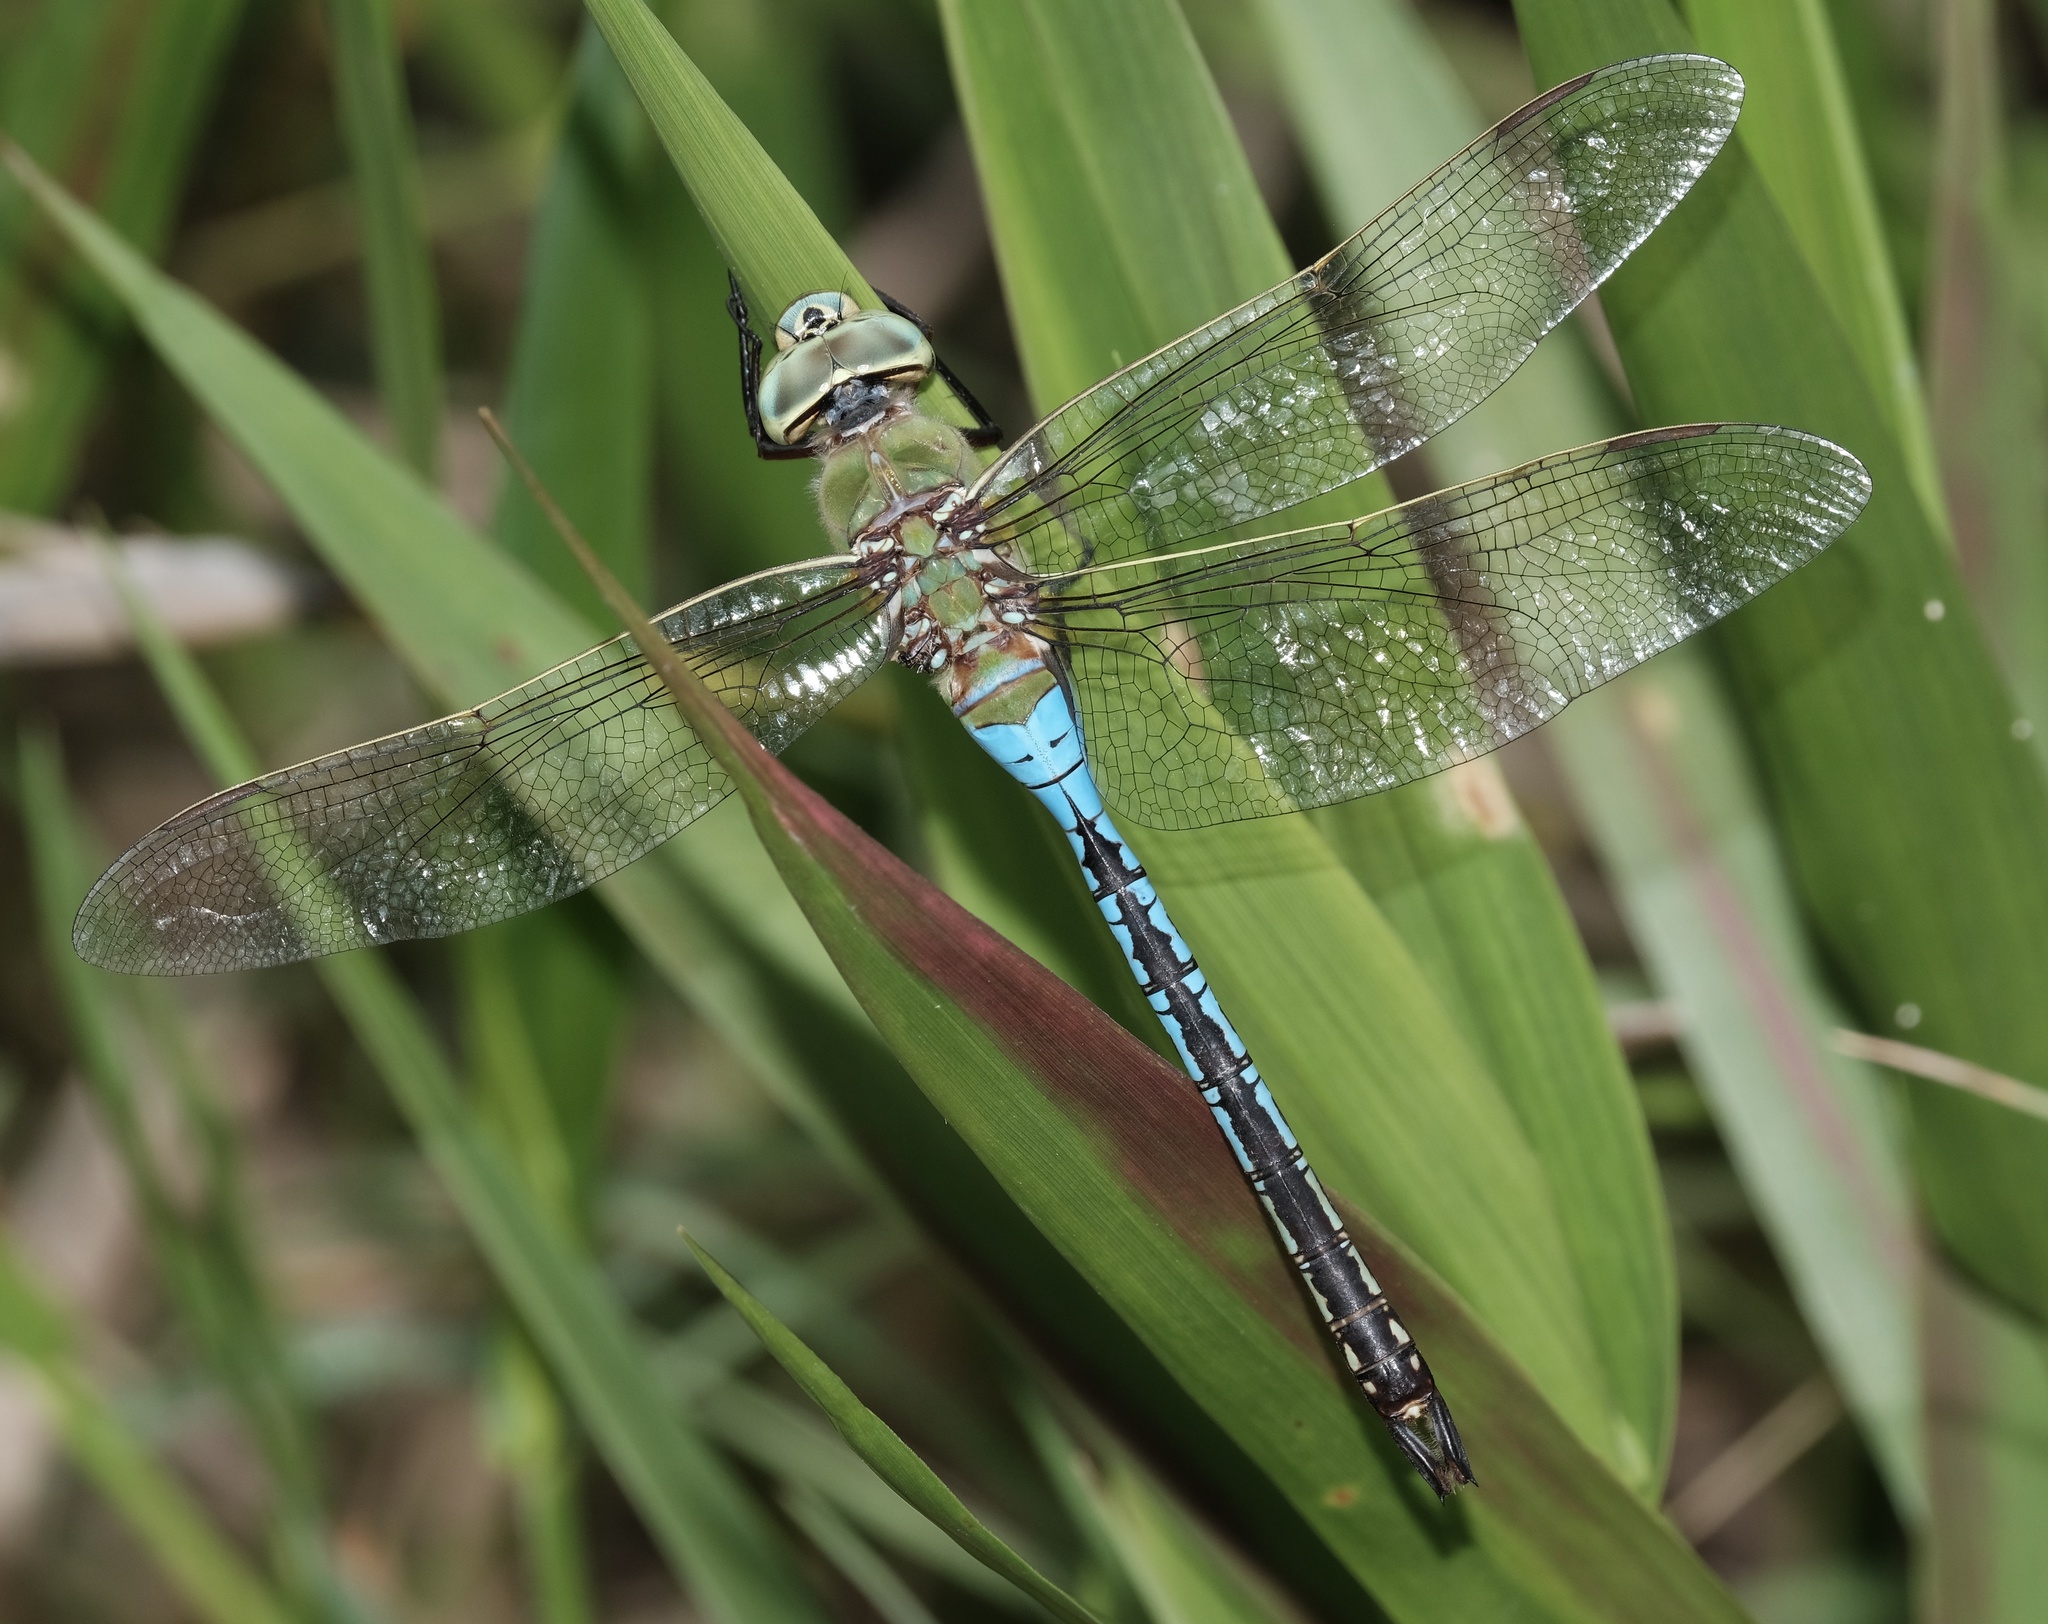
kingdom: Animalia
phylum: Arthropoda
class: Insecta
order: Odonata
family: Aeshnidae
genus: Anax
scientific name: Anax junius
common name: Common green darner
